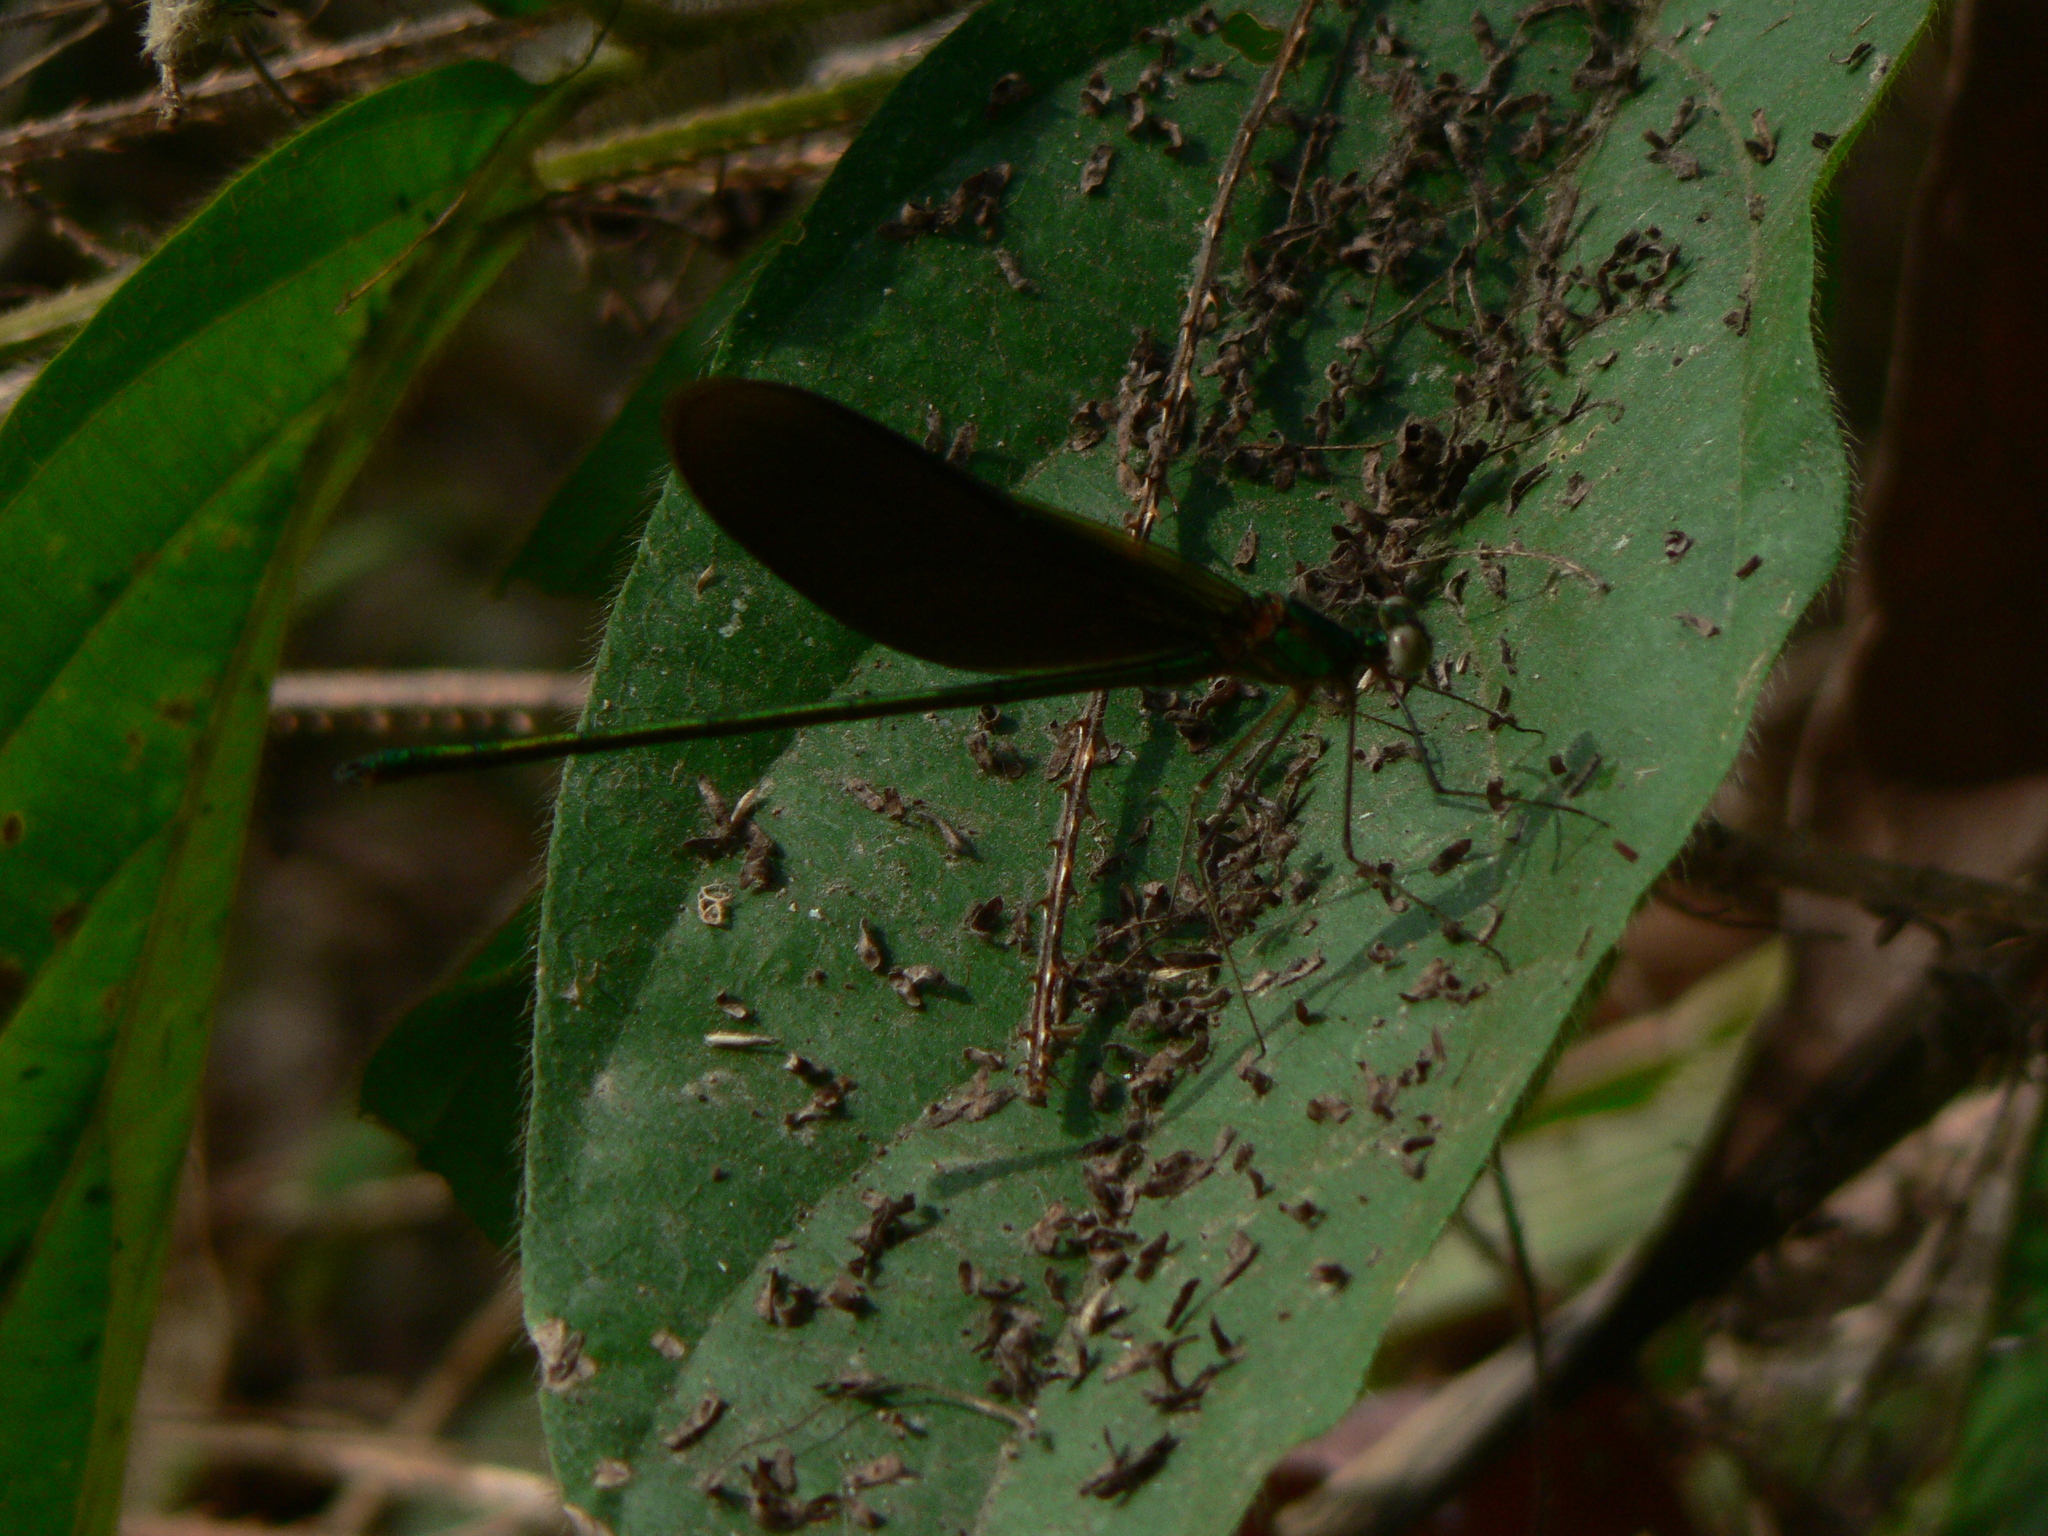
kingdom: Animalia
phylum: Arthropoda
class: Insecta
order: Odonata
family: Calopterygidae
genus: Neurobasis
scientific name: Neurobasis chinensis
